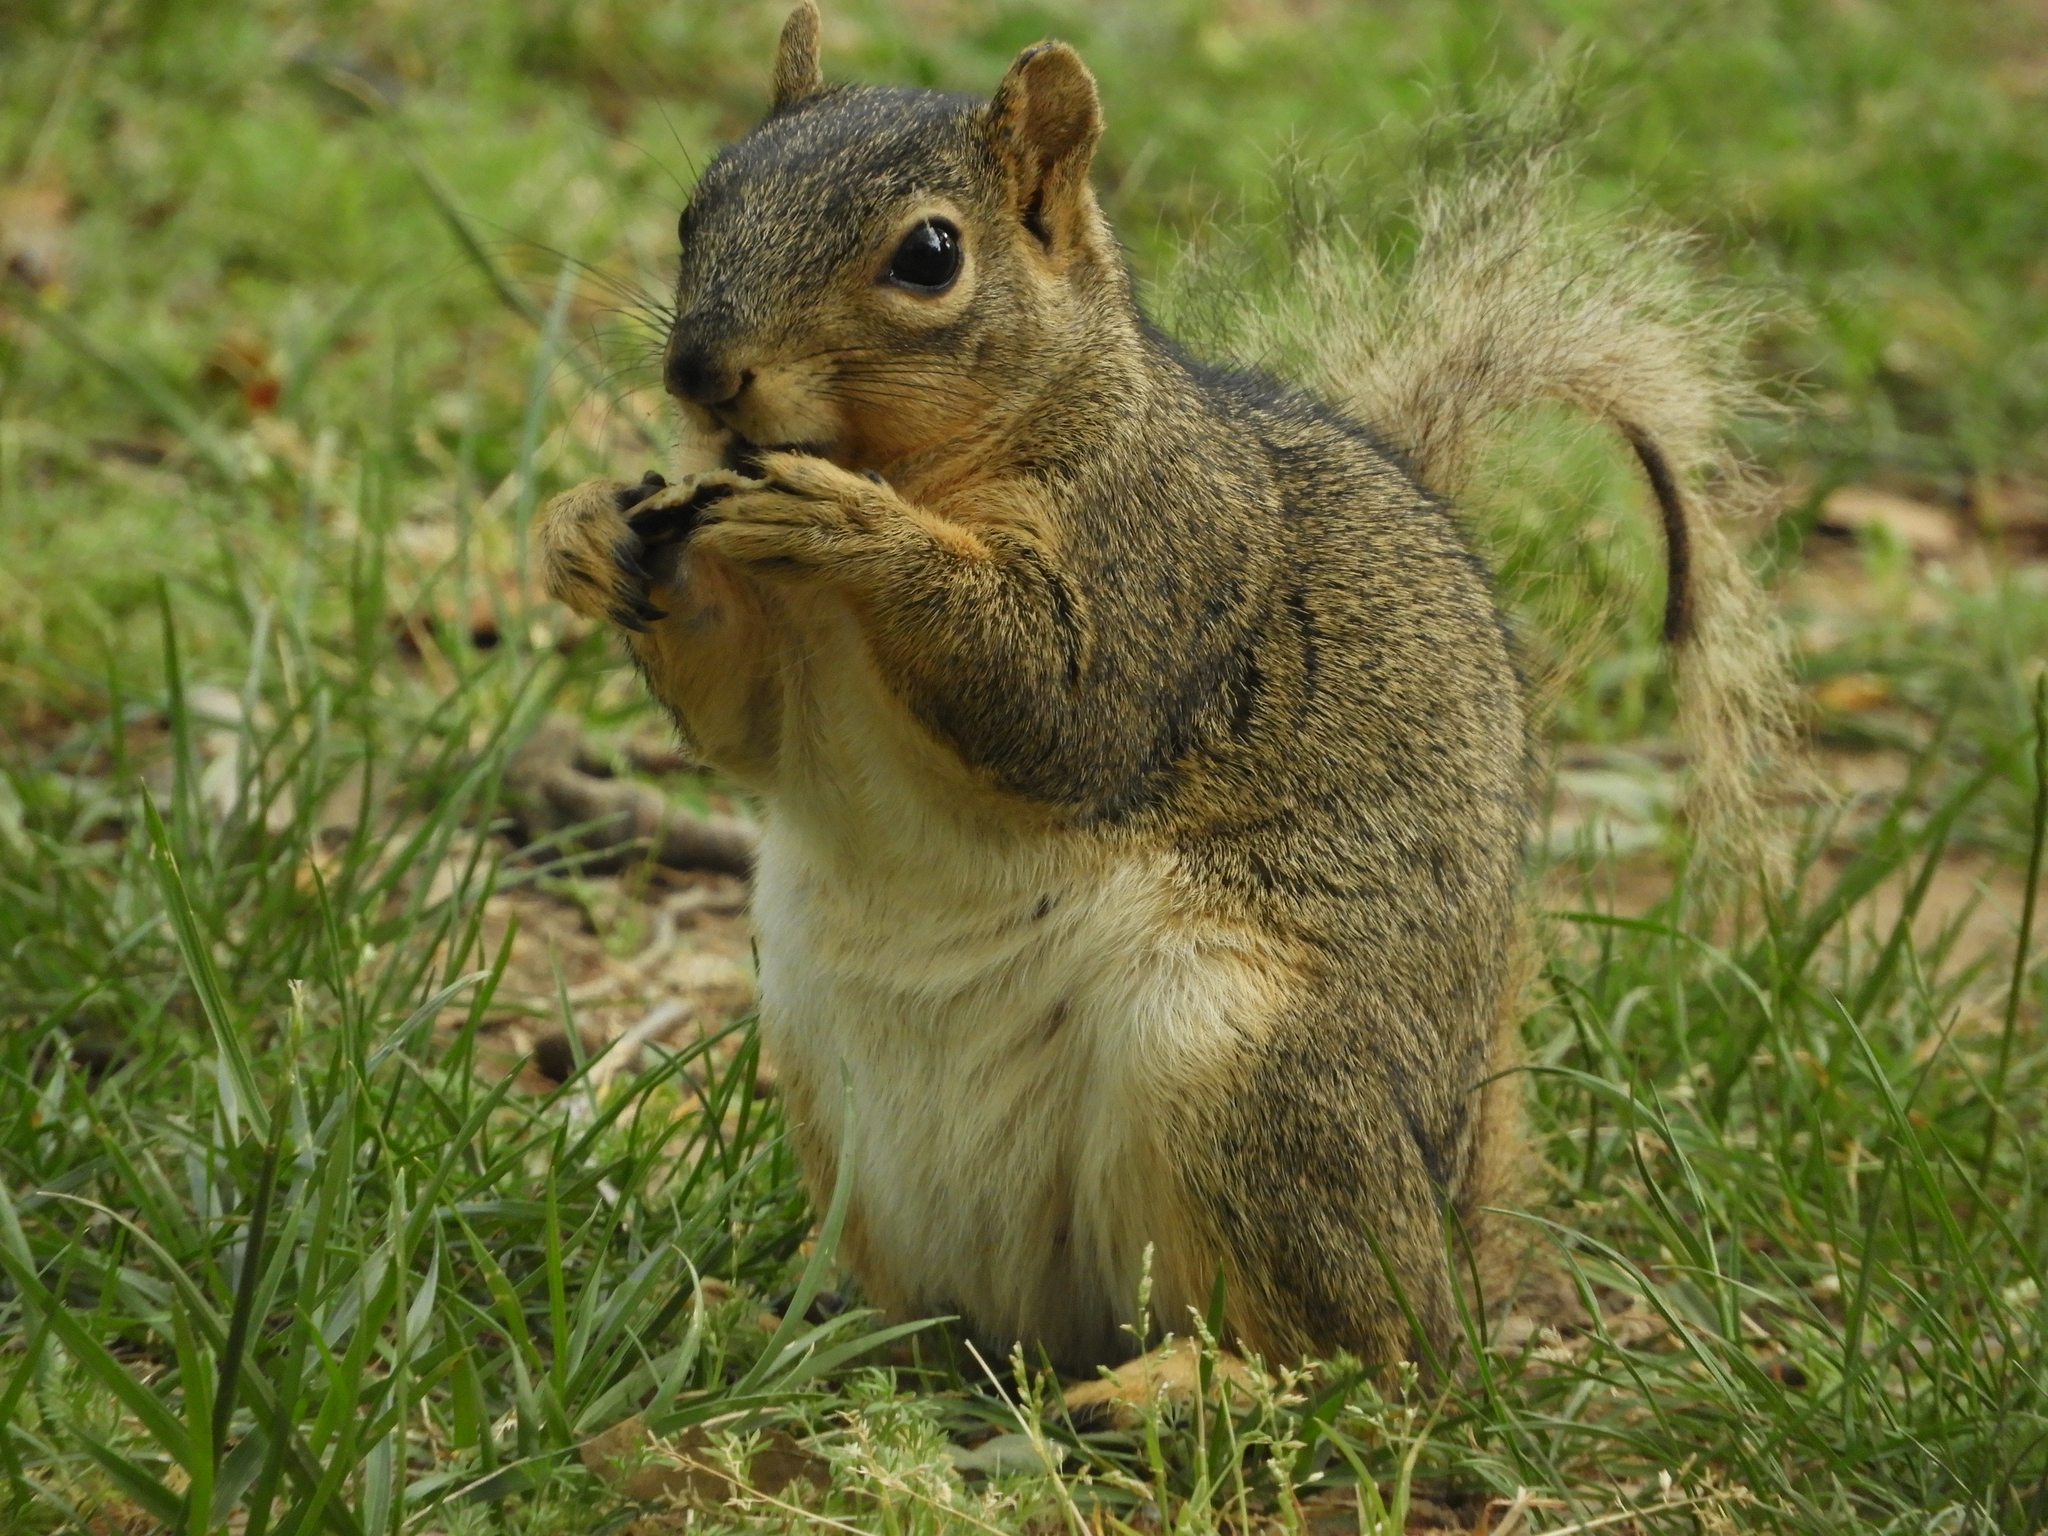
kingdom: Animalia
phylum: Chordata
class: Mammalia
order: Rodentia
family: Sciuridae
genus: Sciurus
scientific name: Sciurus niger
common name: Fox squirrel
